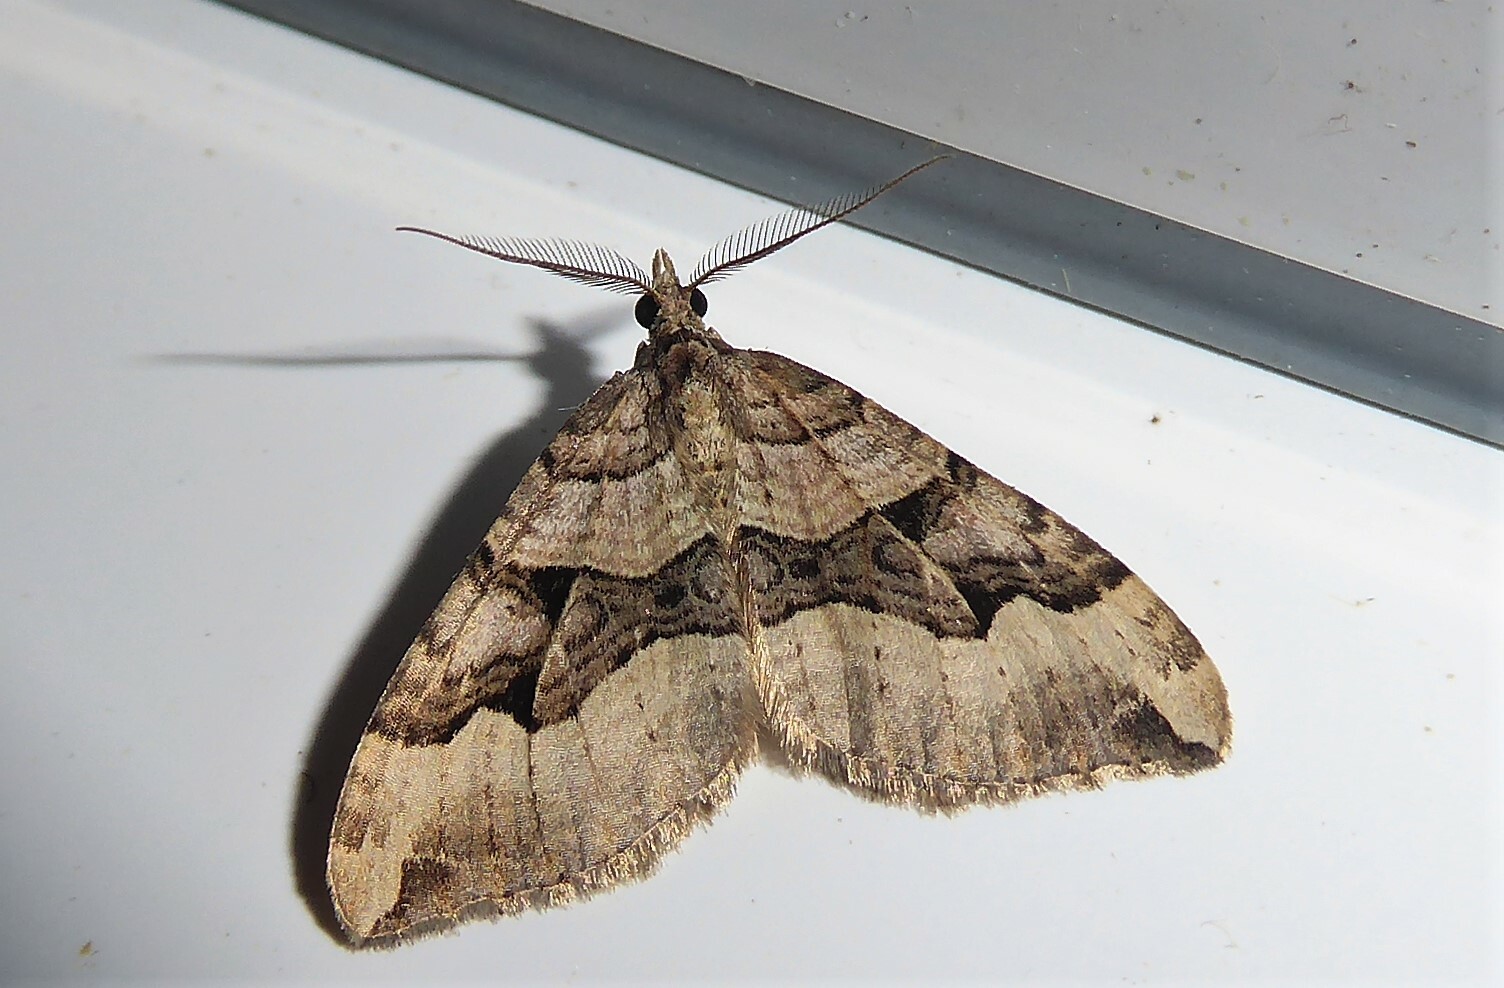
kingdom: Animalia
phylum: Arthropoda
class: Insecta
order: Lepidoptera
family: Geometridae
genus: Xanthorhoe
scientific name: Xanthorhoe semifissata
